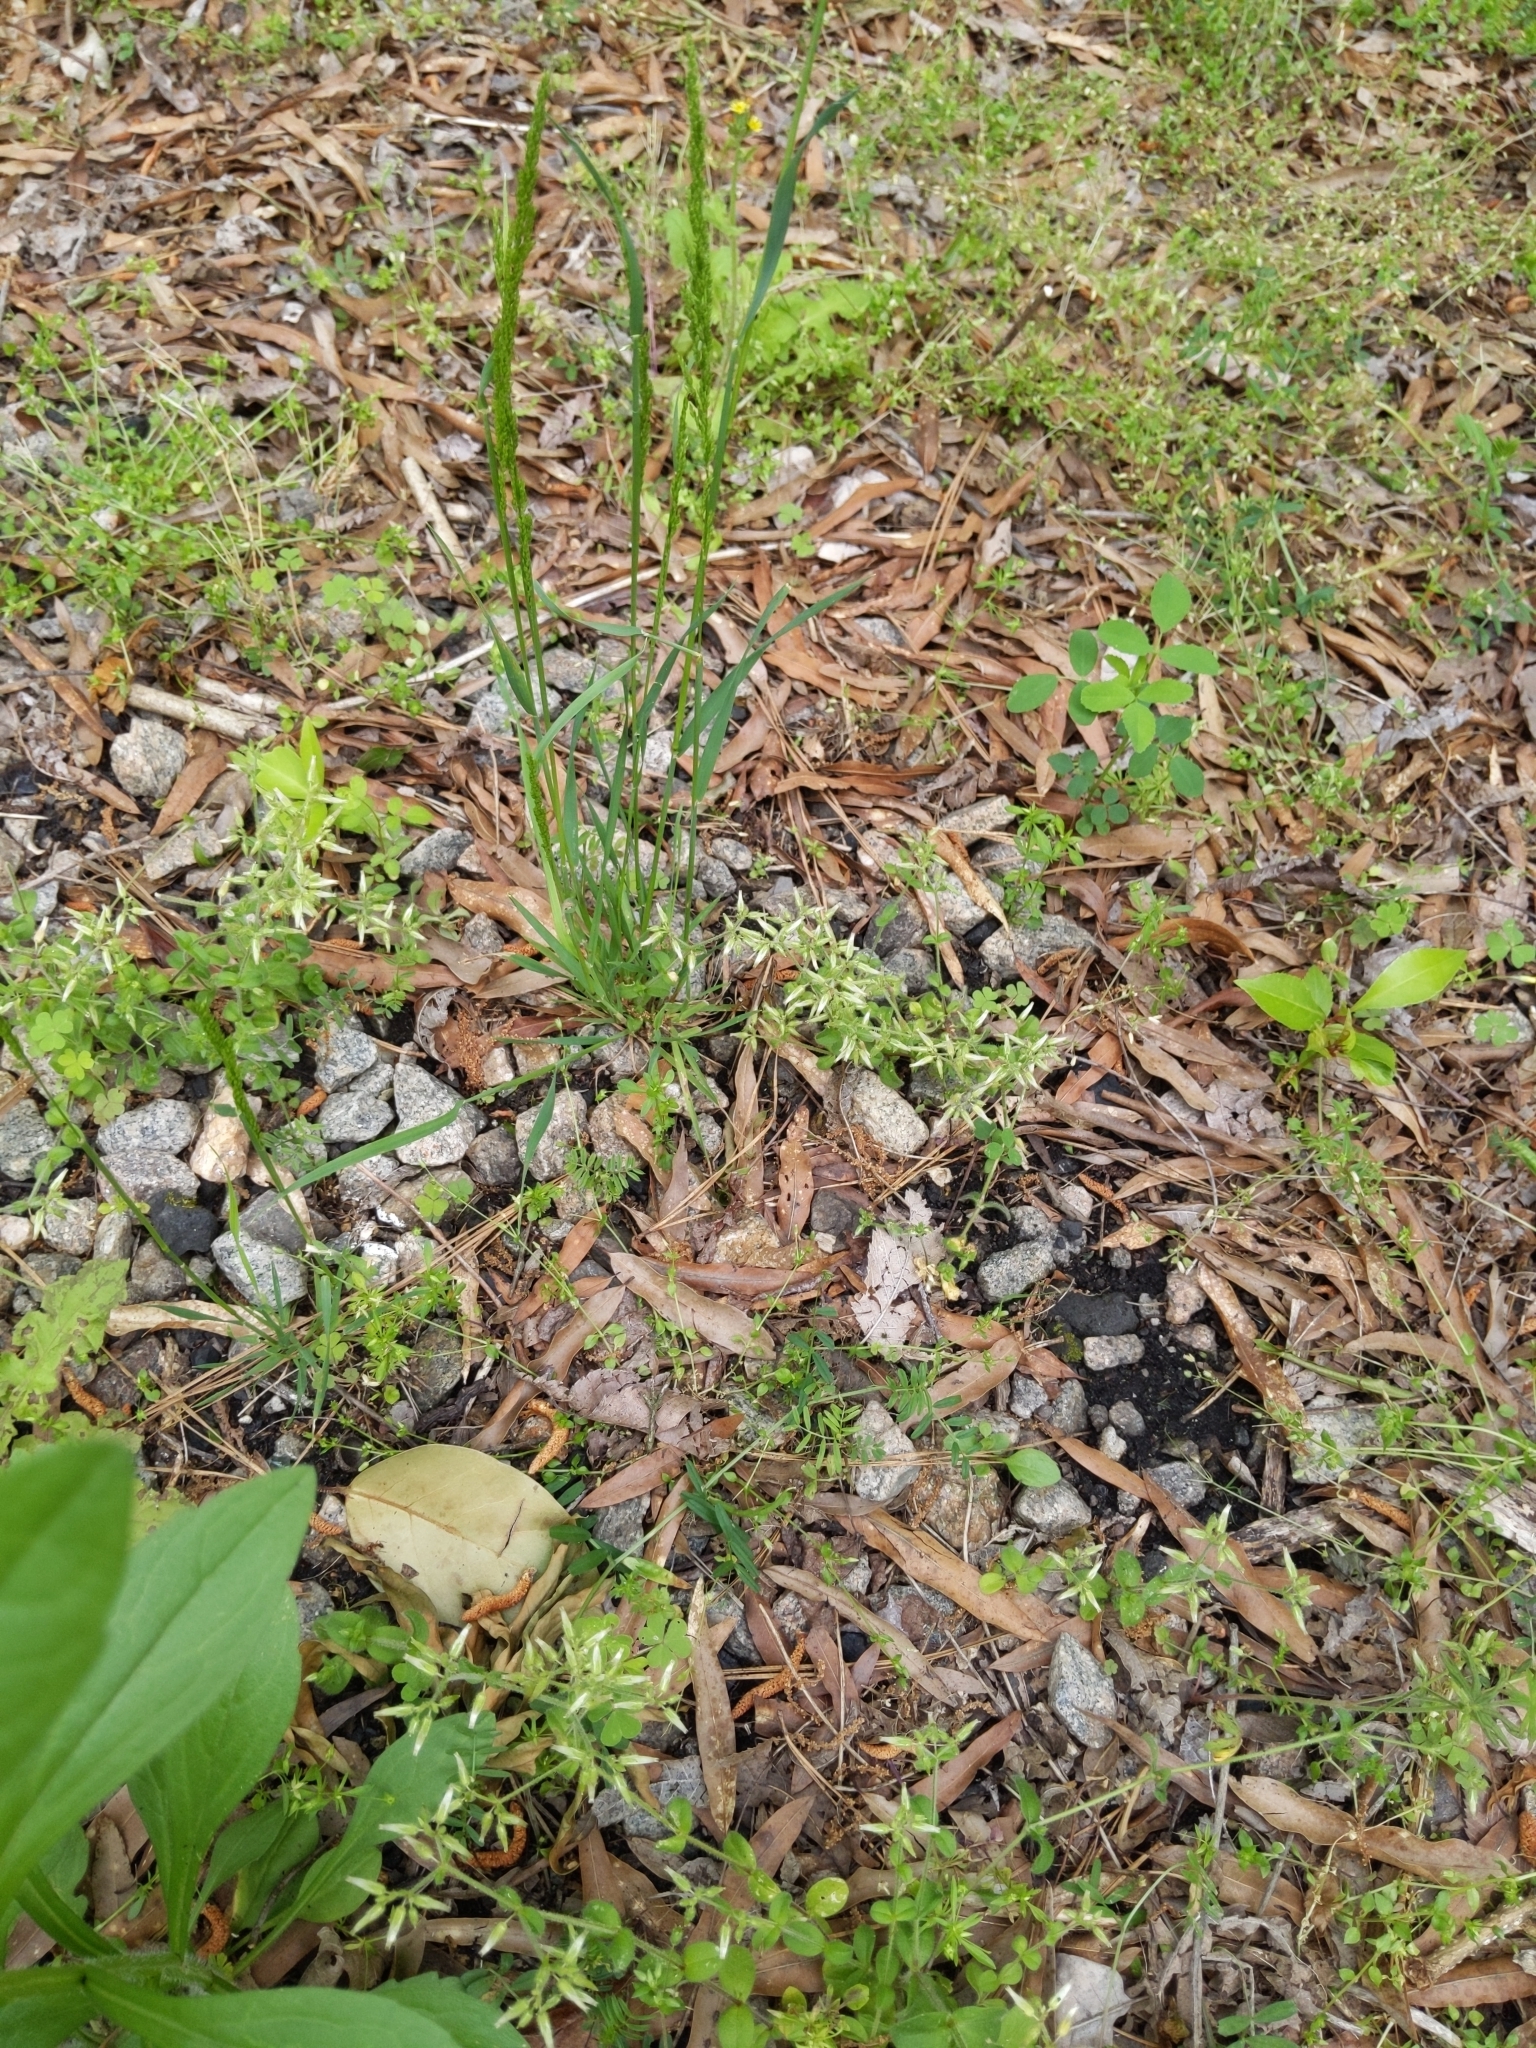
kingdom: Animalia
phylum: Arthropoda
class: Insecta
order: Orthoptera
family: Acrididae
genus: Schistocerca
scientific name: Schistocerca americana
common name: American bird locust
